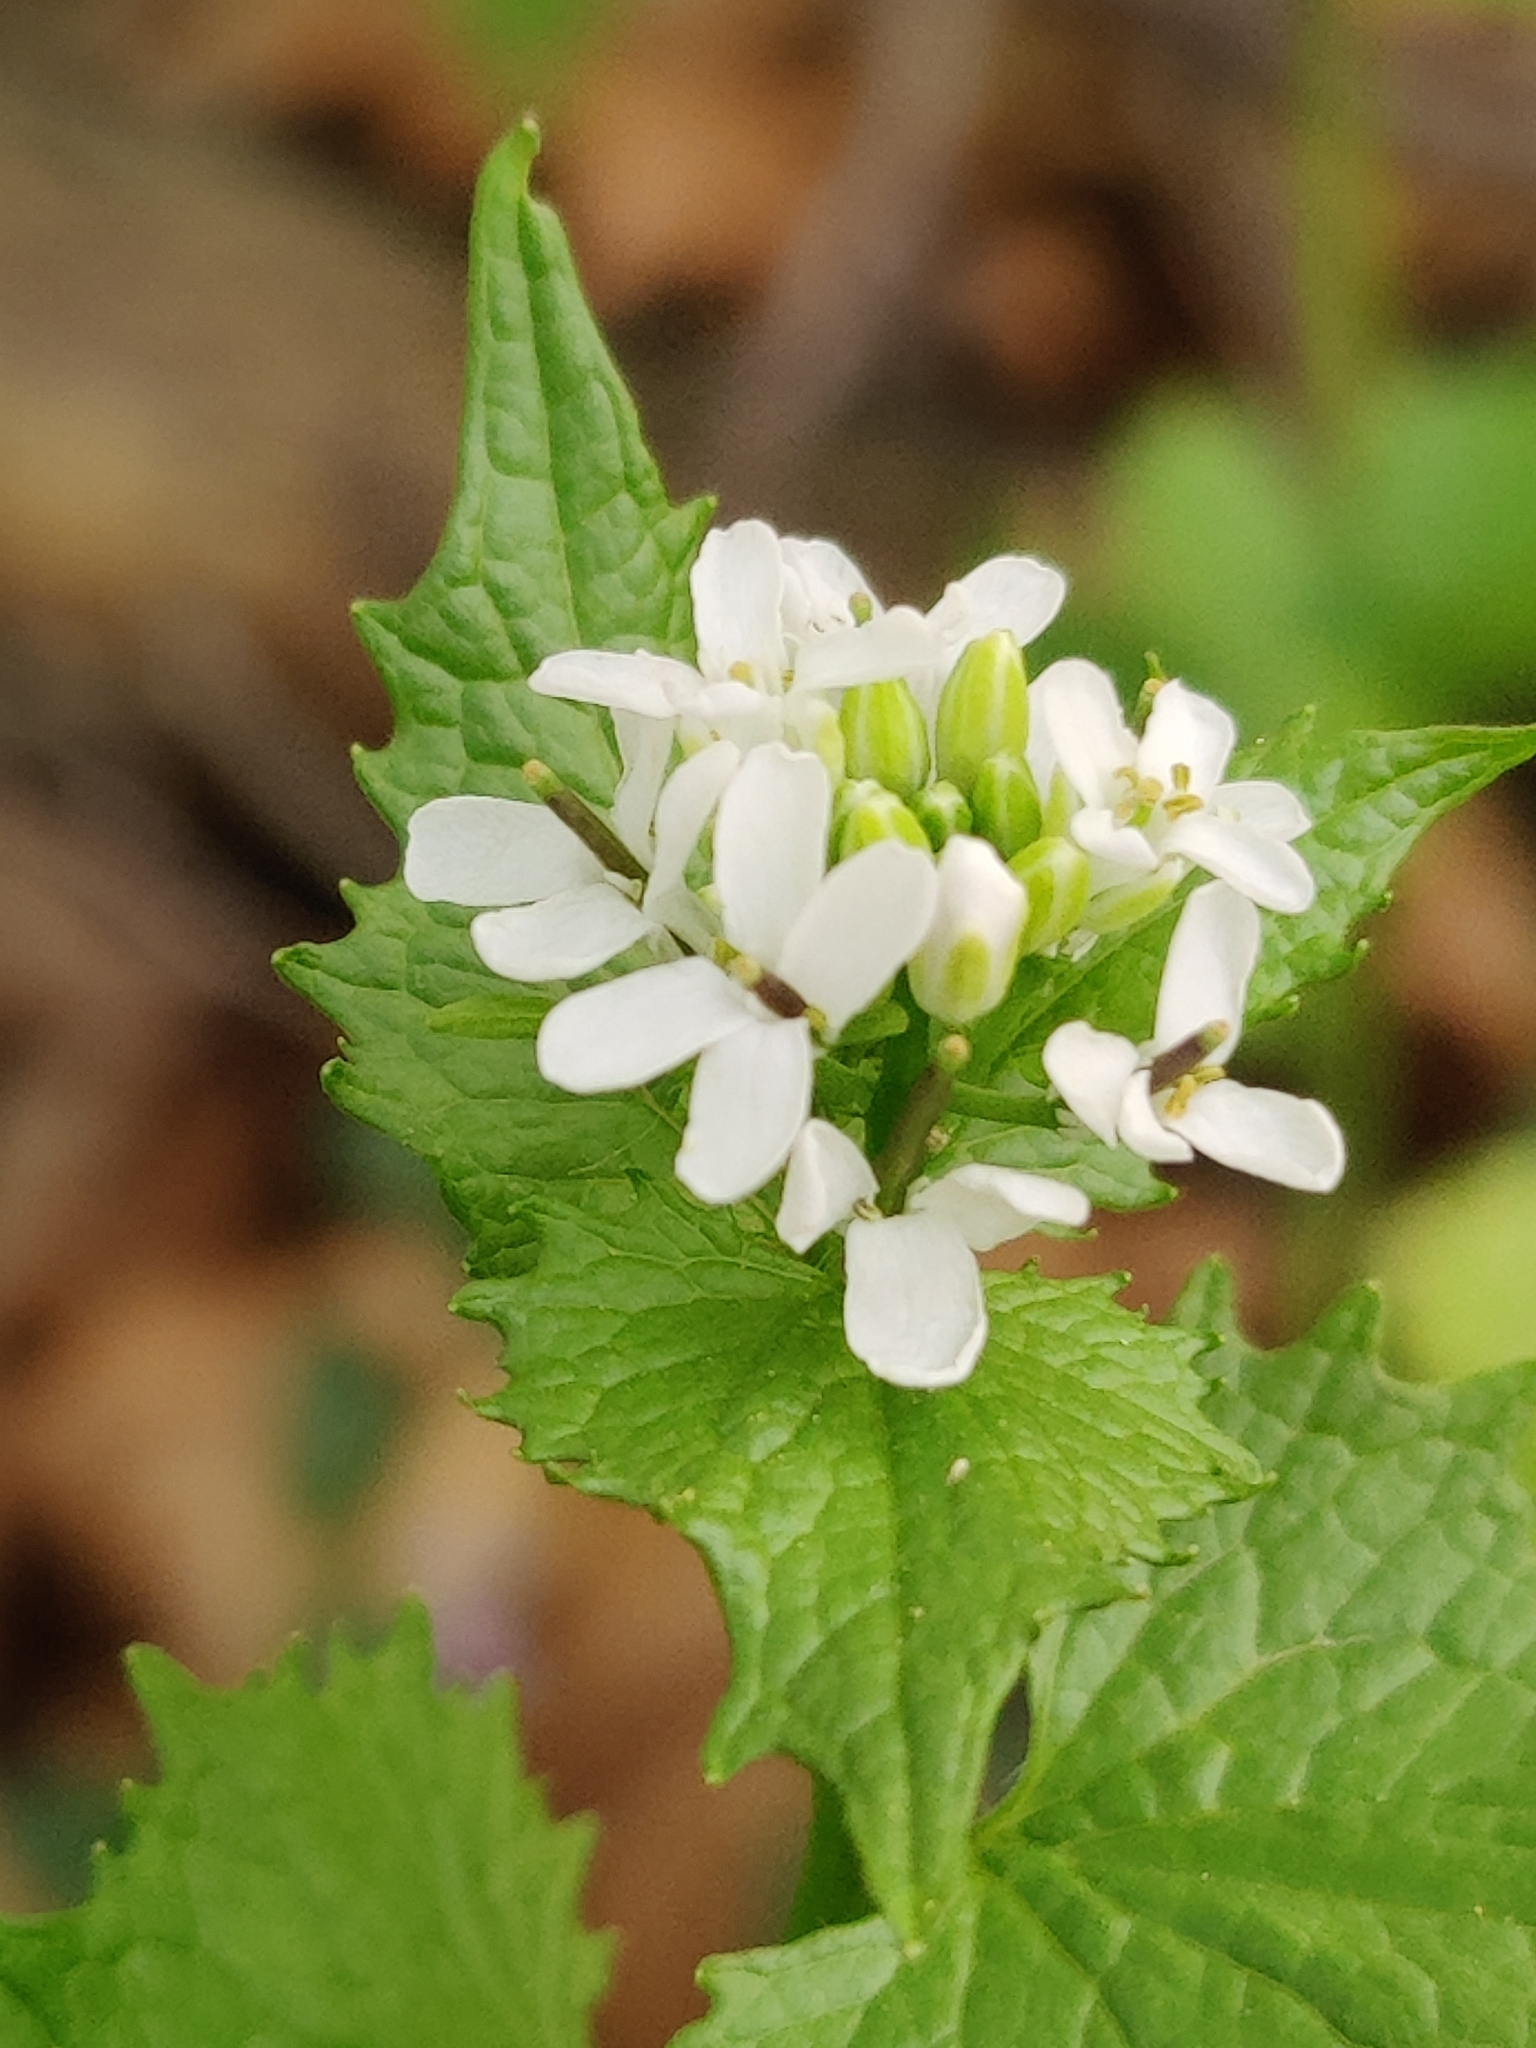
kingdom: Plantae
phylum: Tracheophyta
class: Magnoliopsida
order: Brassicales
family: Brassicaceae
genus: Alliaria
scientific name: Alliaria petiolata
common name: Garlic mustard
